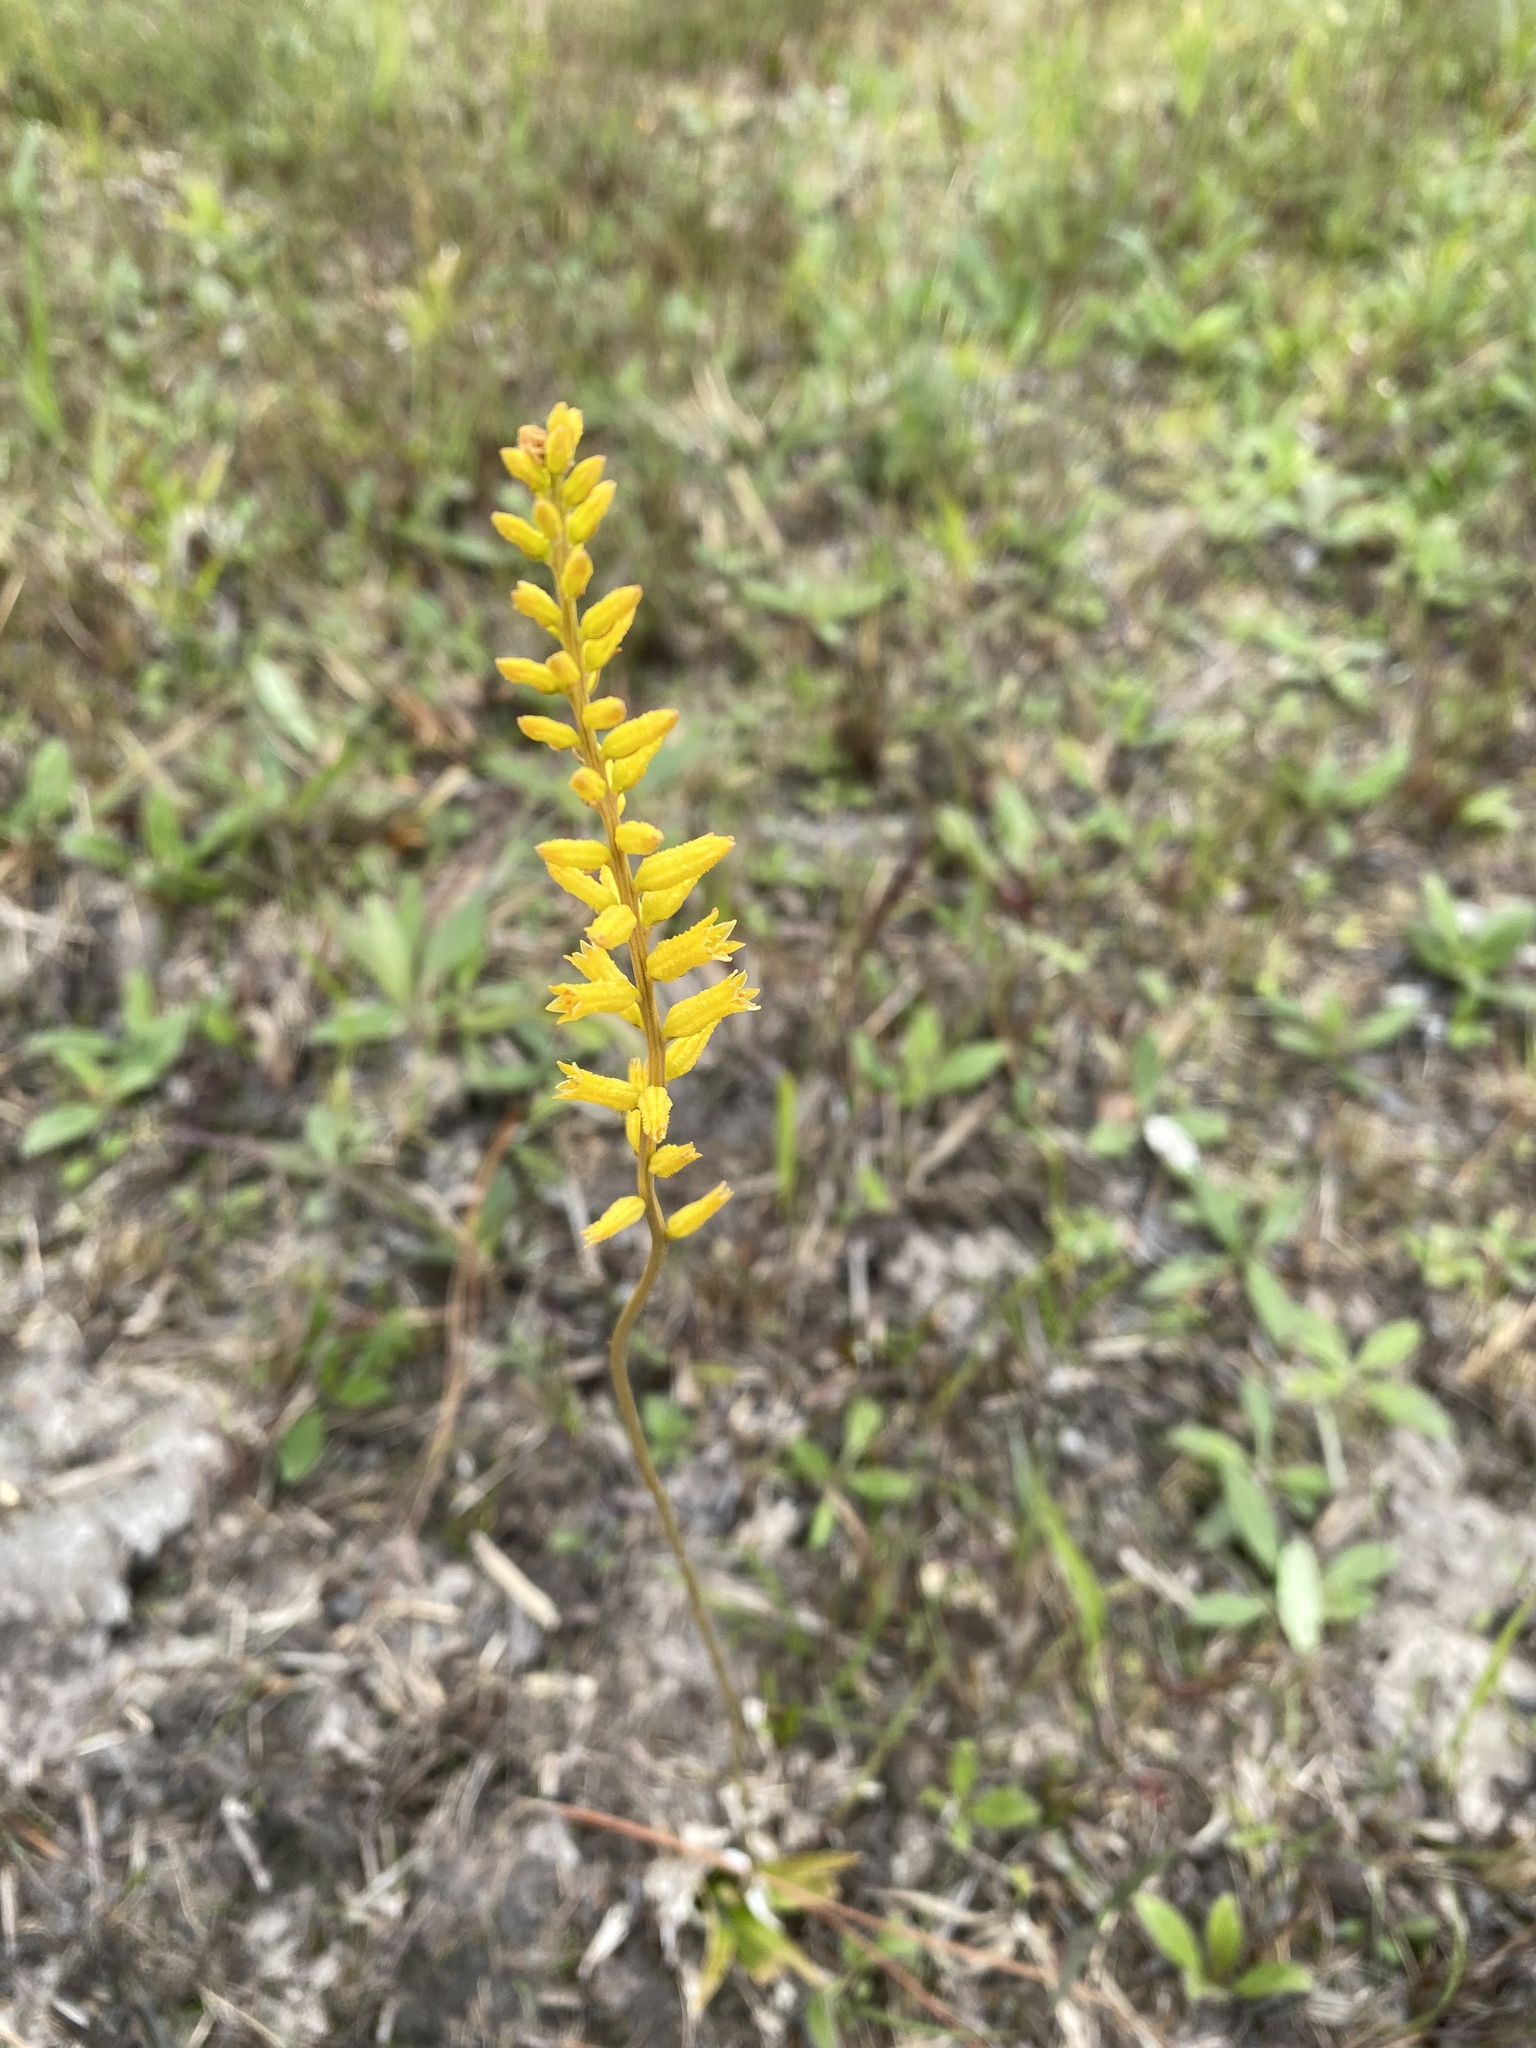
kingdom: Plantae
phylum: Tracheophyta
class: Liliopsida
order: Dioscoreales
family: Nartheciaceae
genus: Aletris
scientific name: Aletris lutea
